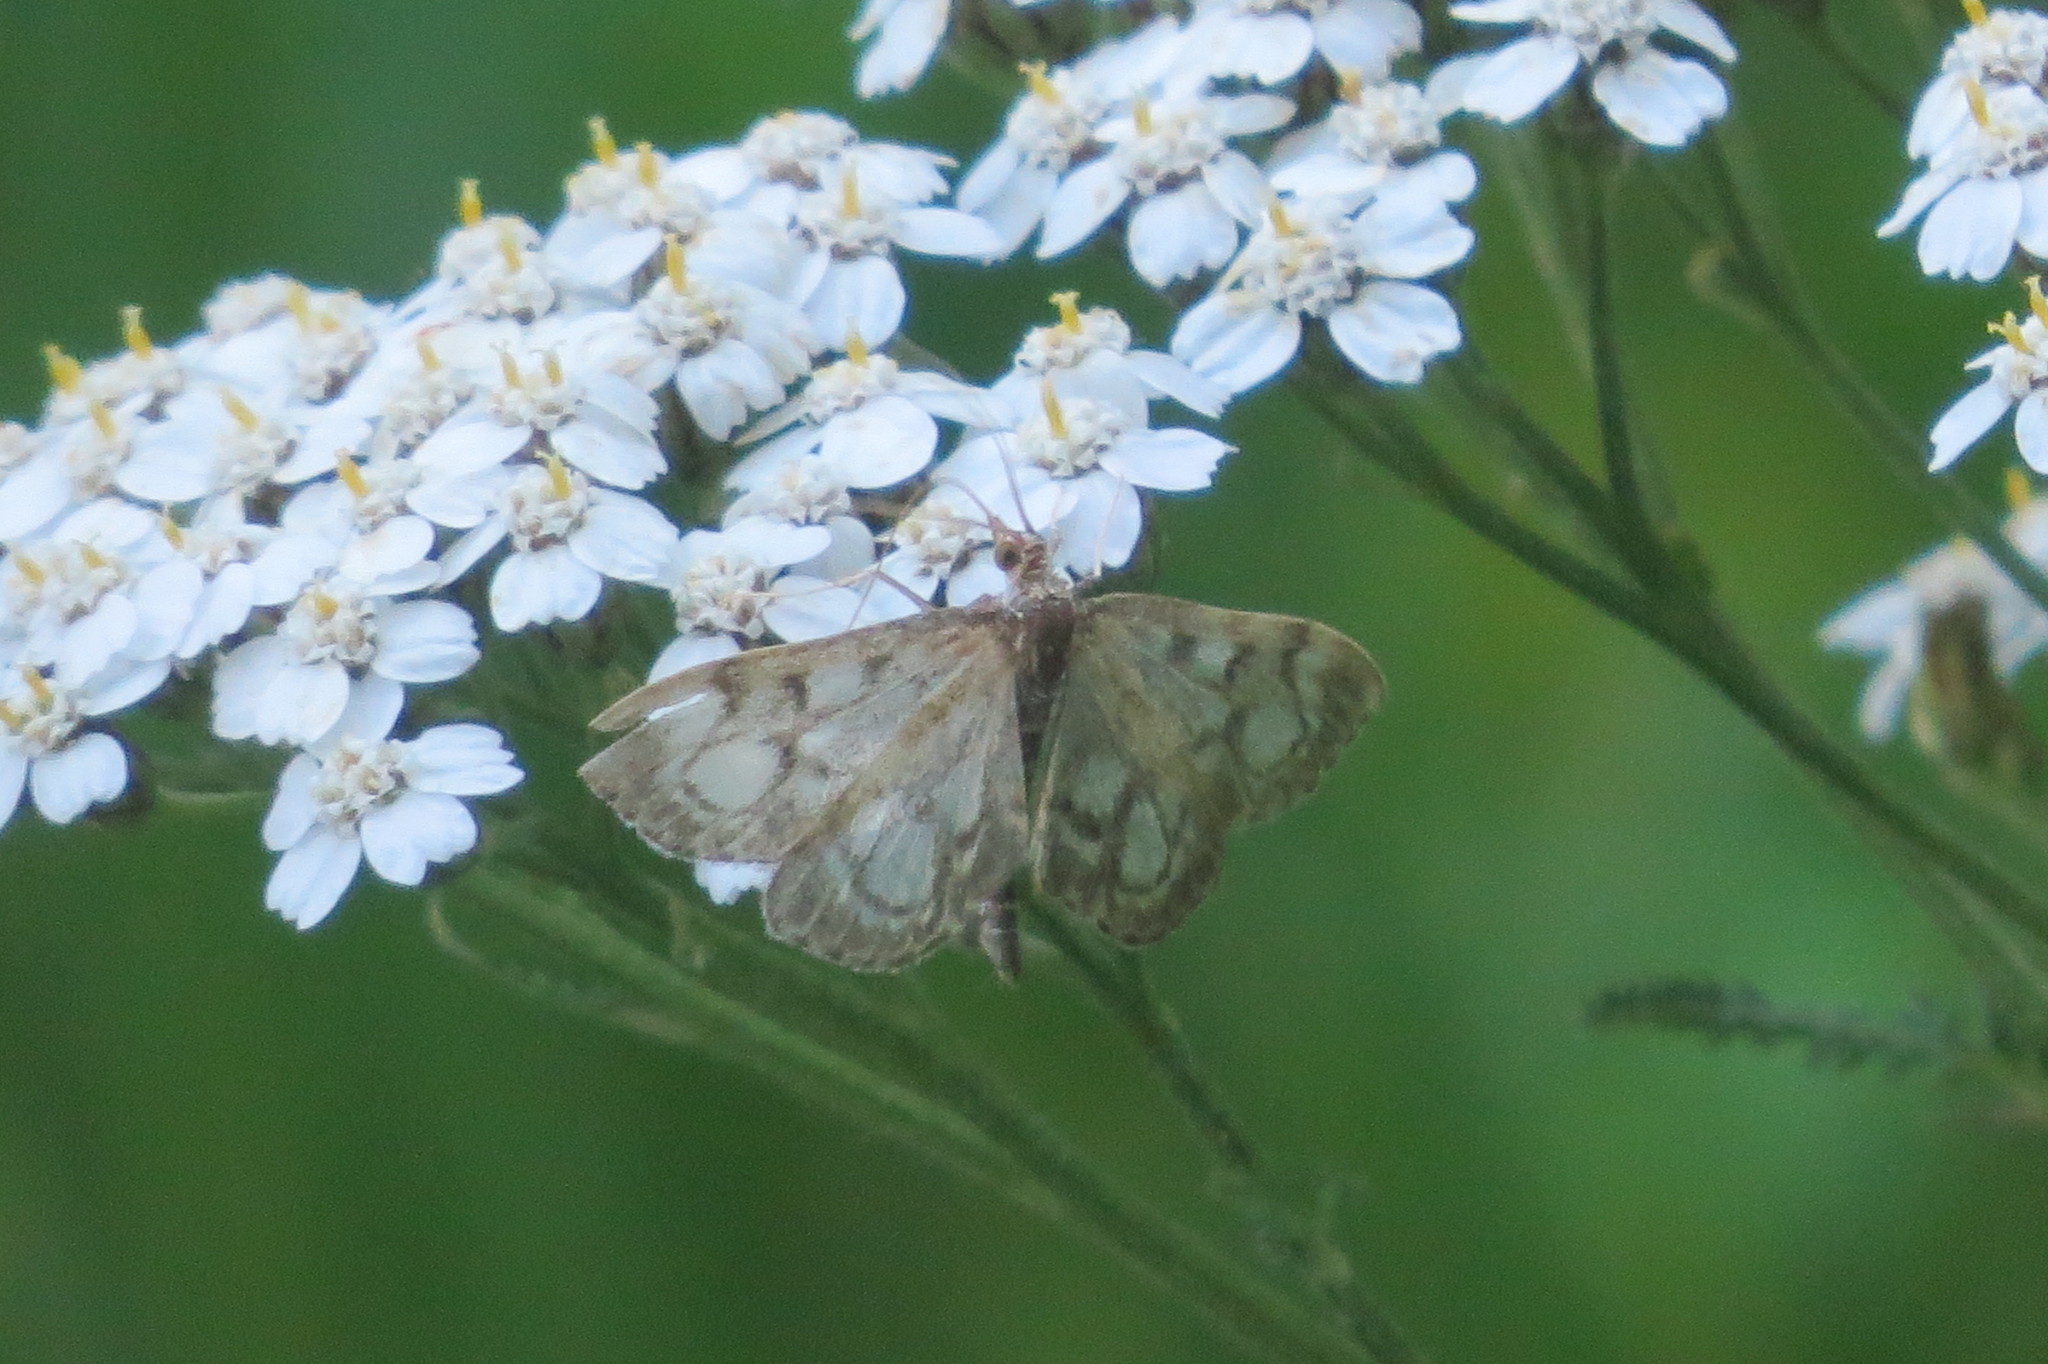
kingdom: Animalia
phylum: Arthropoda
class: Insecta
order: Lepidoptera
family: Crambidae
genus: Anania
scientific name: Anania coronata
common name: Elder pearl
